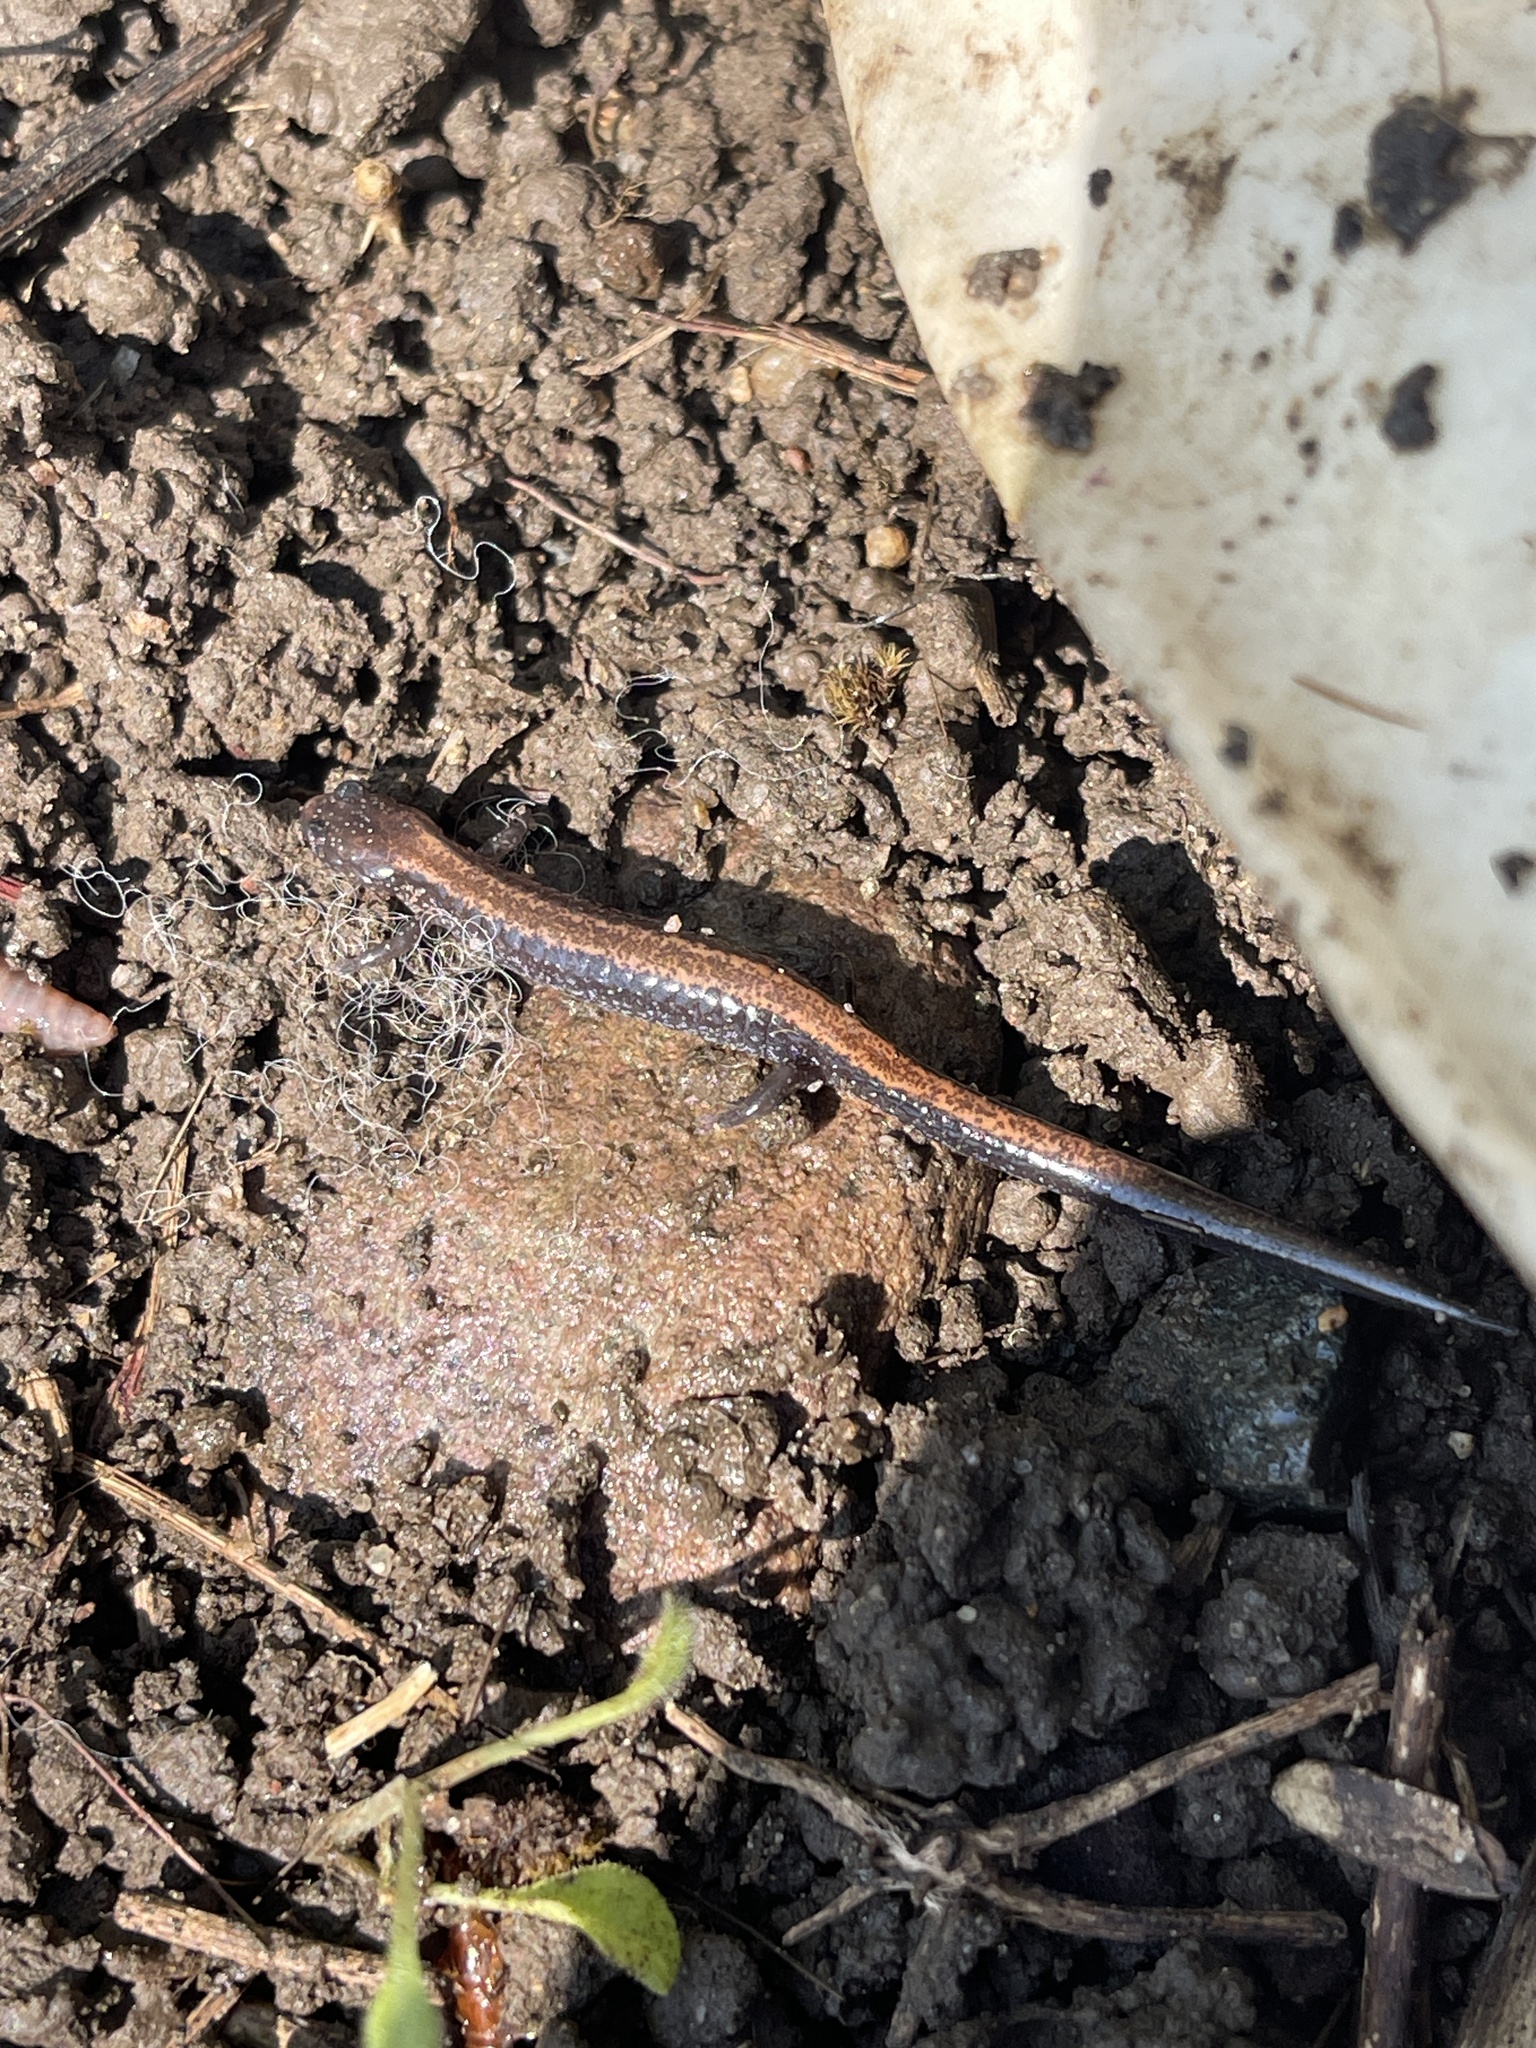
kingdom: Animalia
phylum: Chordata
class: Amphibia
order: Caudata
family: Plethodontidae
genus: Plethodon
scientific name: Plethodon cinereus
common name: Redback salamander
